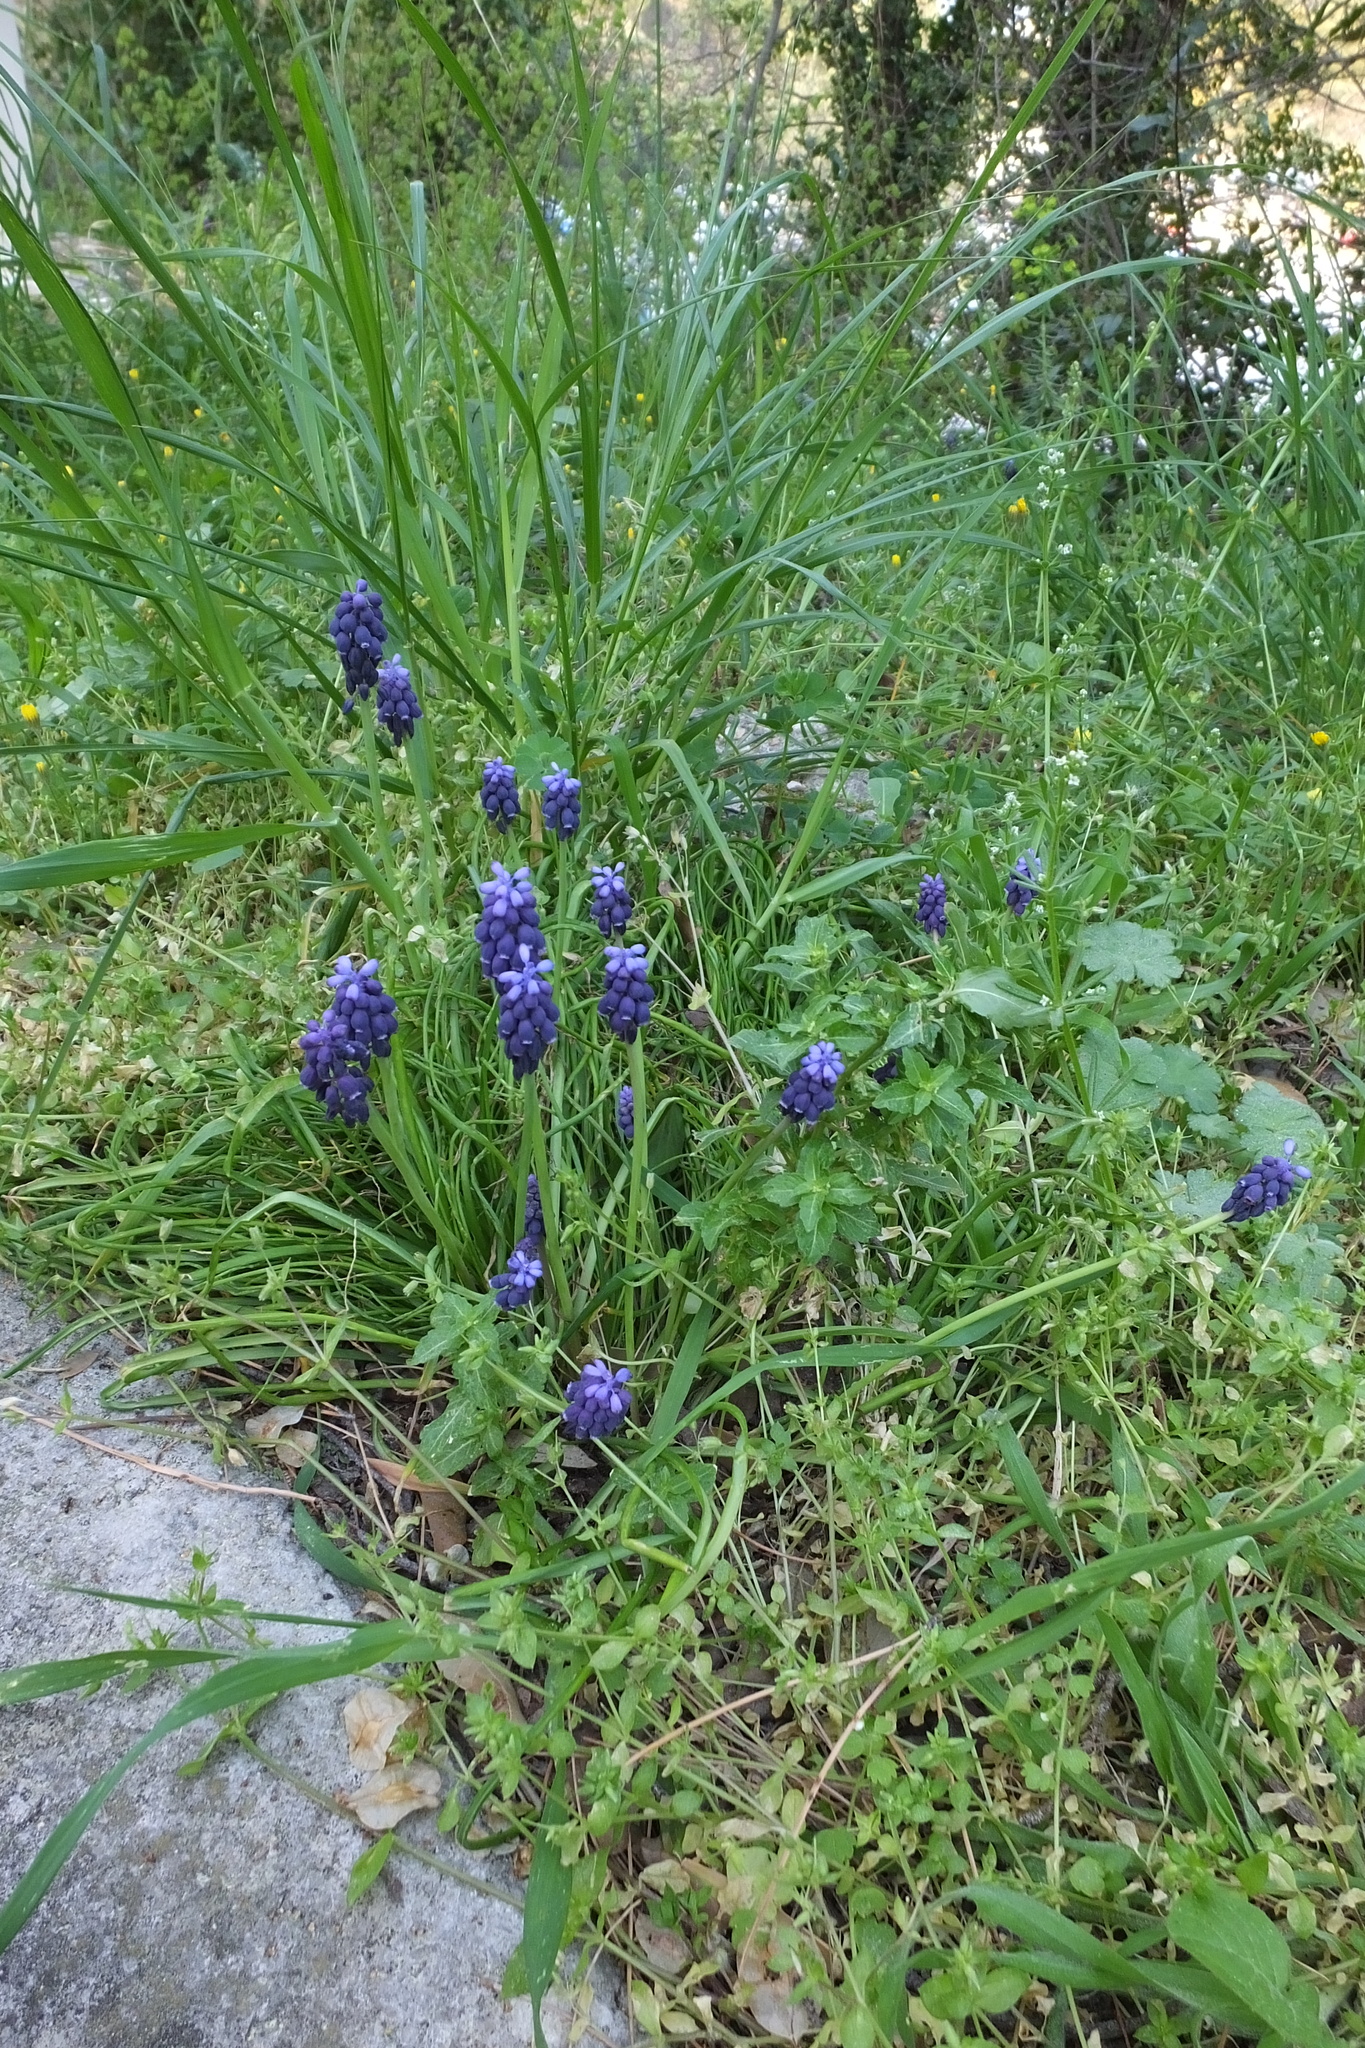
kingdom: Plantae
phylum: Tracheophyta
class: Liliopsida
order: Asparagales
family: Asparagaceae
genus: Muscari
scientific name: Muscari neglectum
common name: Grape-hyacinth
